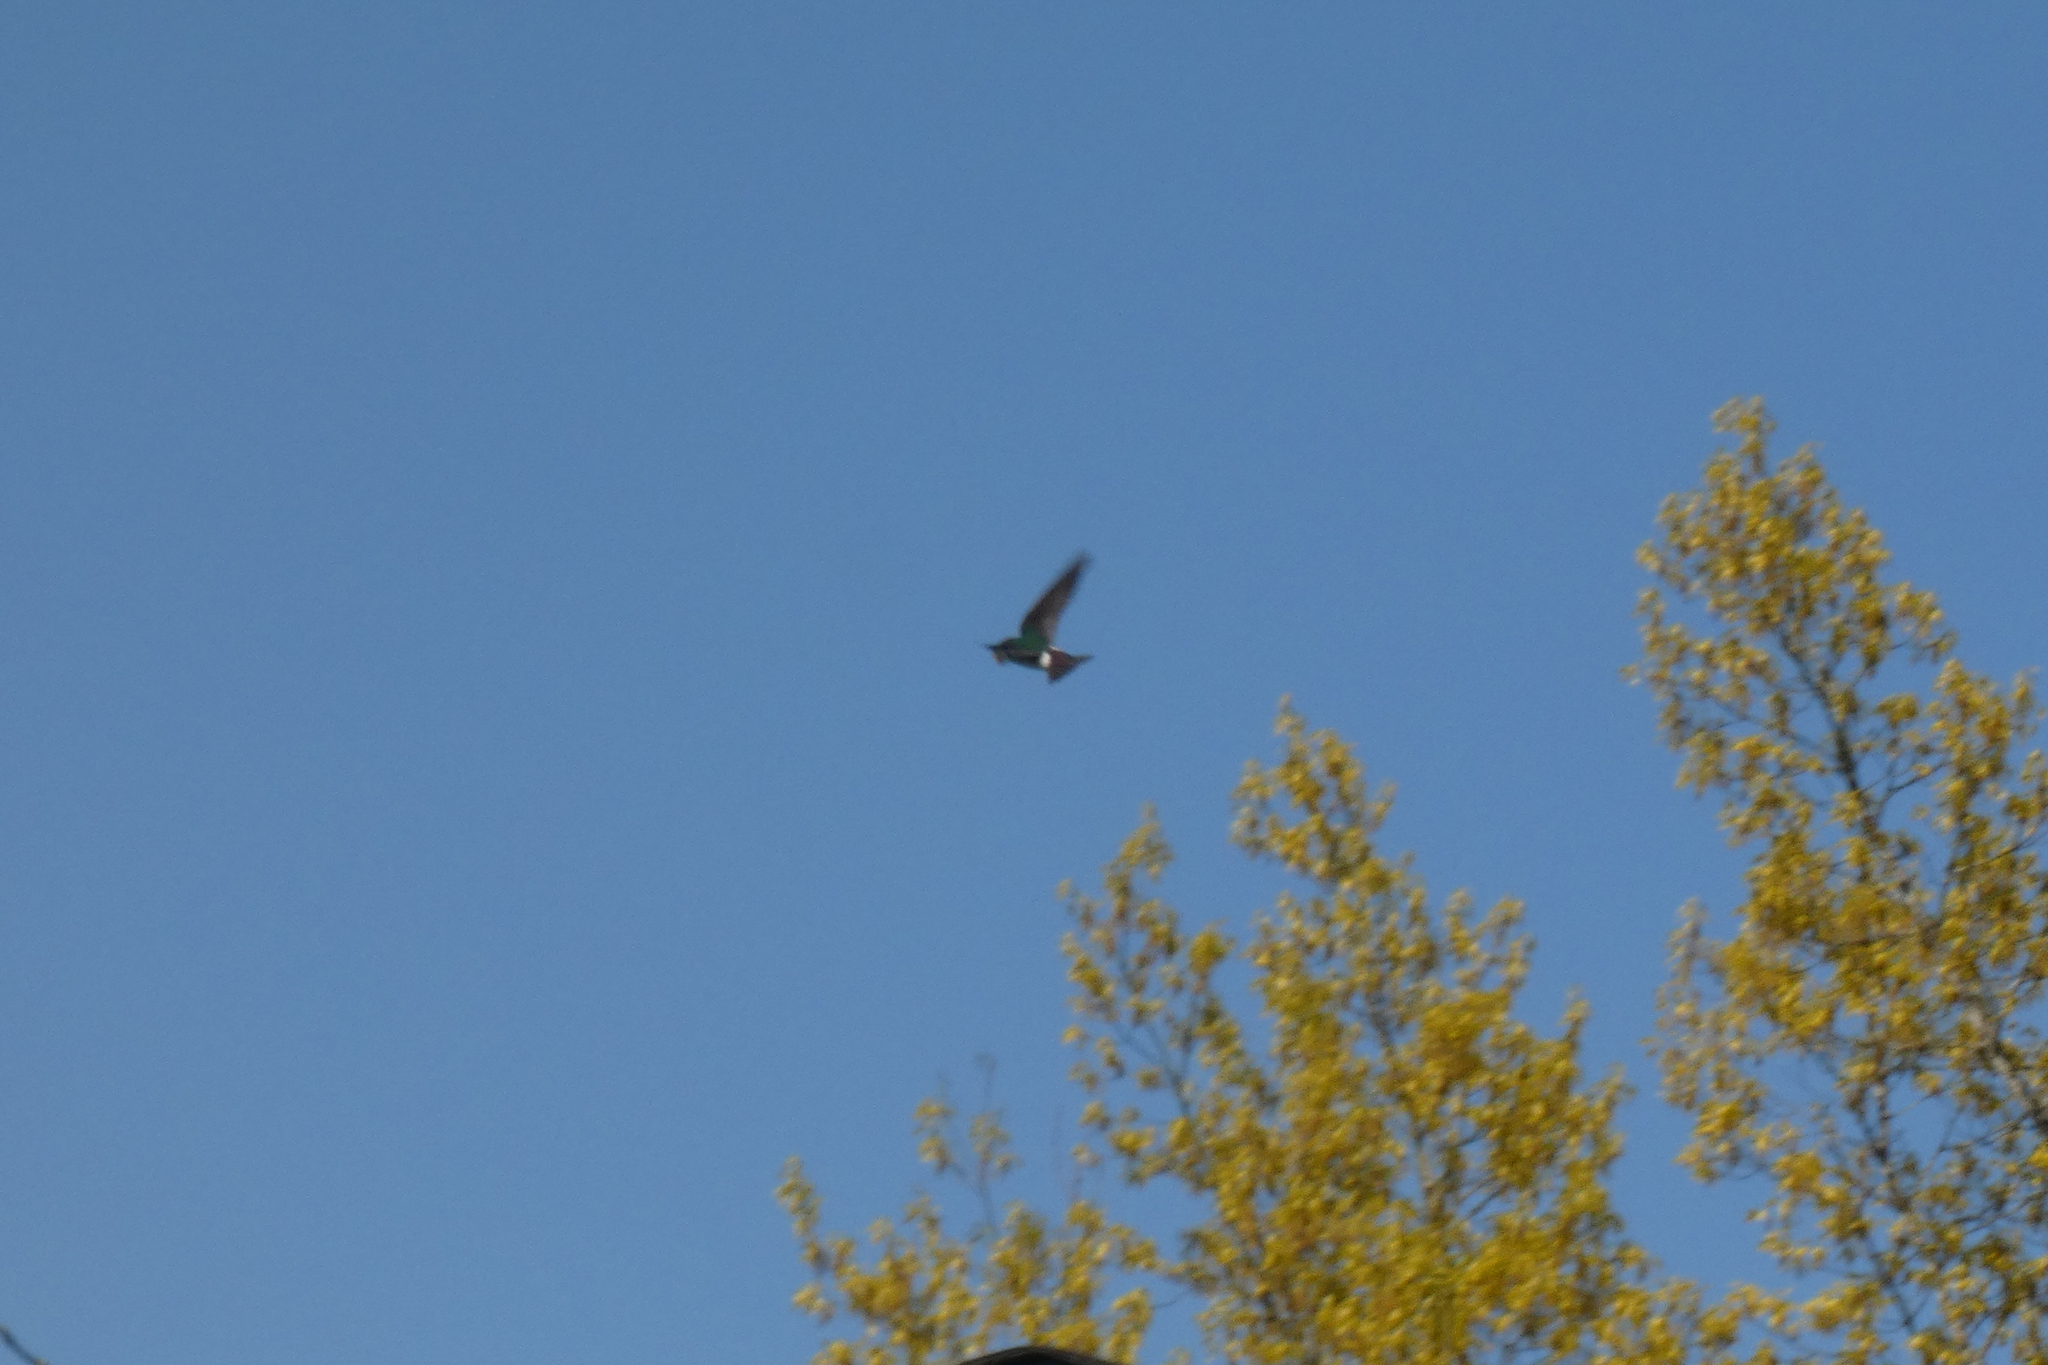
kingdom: Animalia
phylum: Chordata
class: Aves
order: Passeriformes
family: Hirundinidae
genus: Tachycineta
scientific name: Tachycineta thalassina
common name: Violet-green swallow
